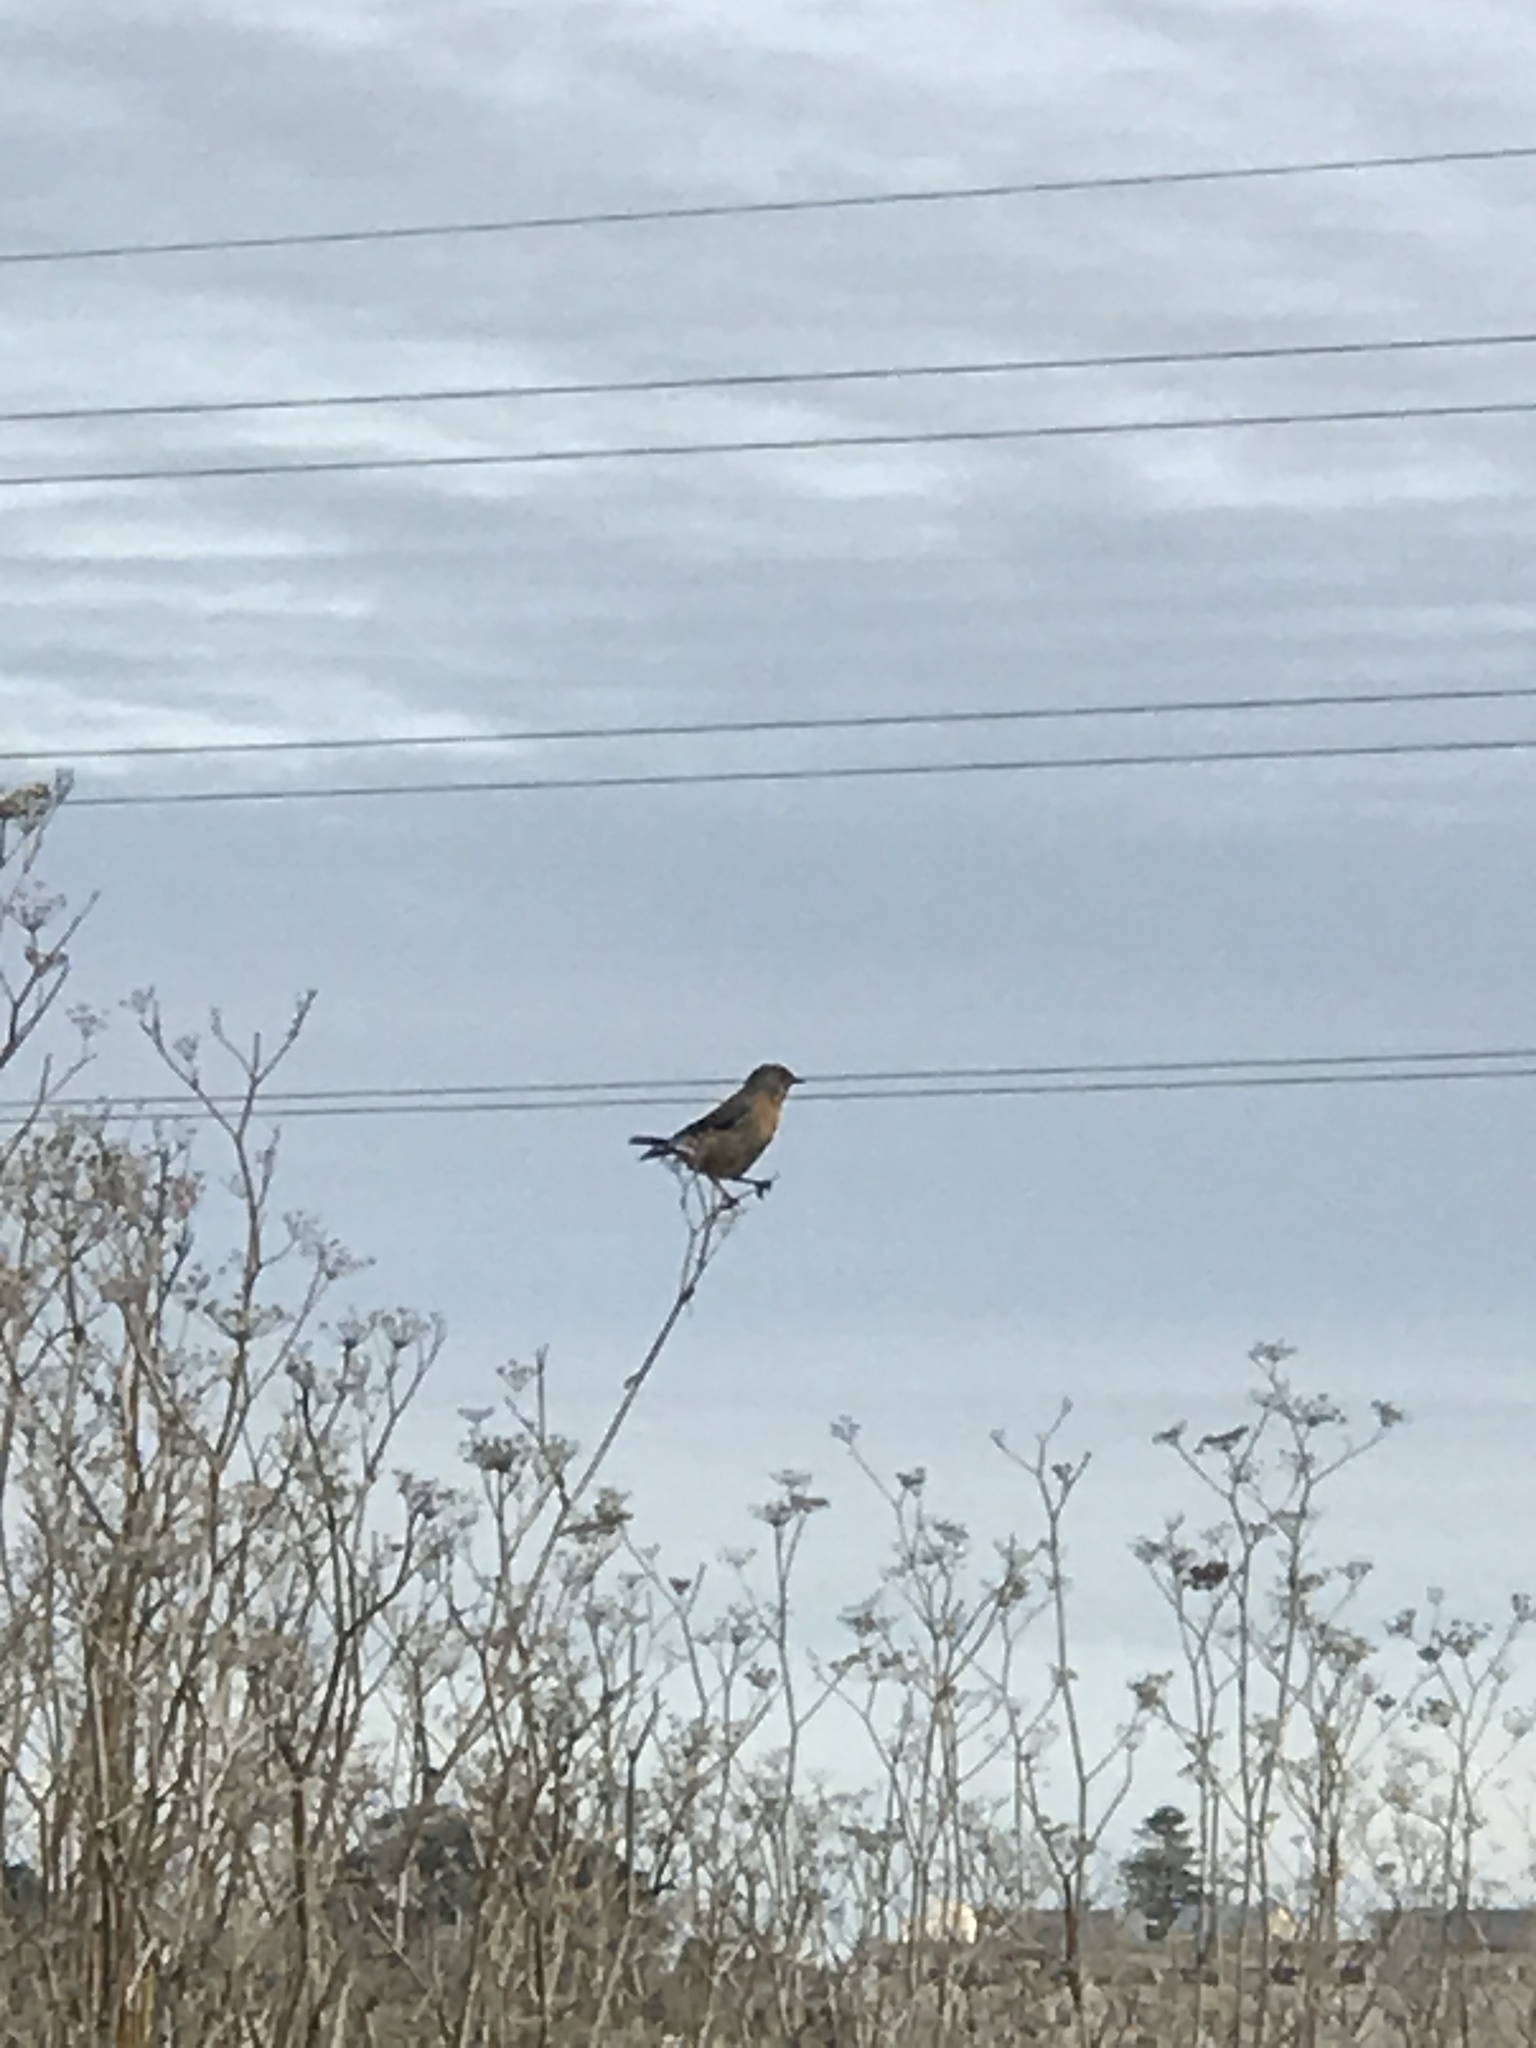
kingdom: Animalia
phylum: Chordata
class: Aves
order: Passeriformes
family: Turdidae
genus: Sialia
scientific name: Sialia mexicana
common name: Western bluebird
